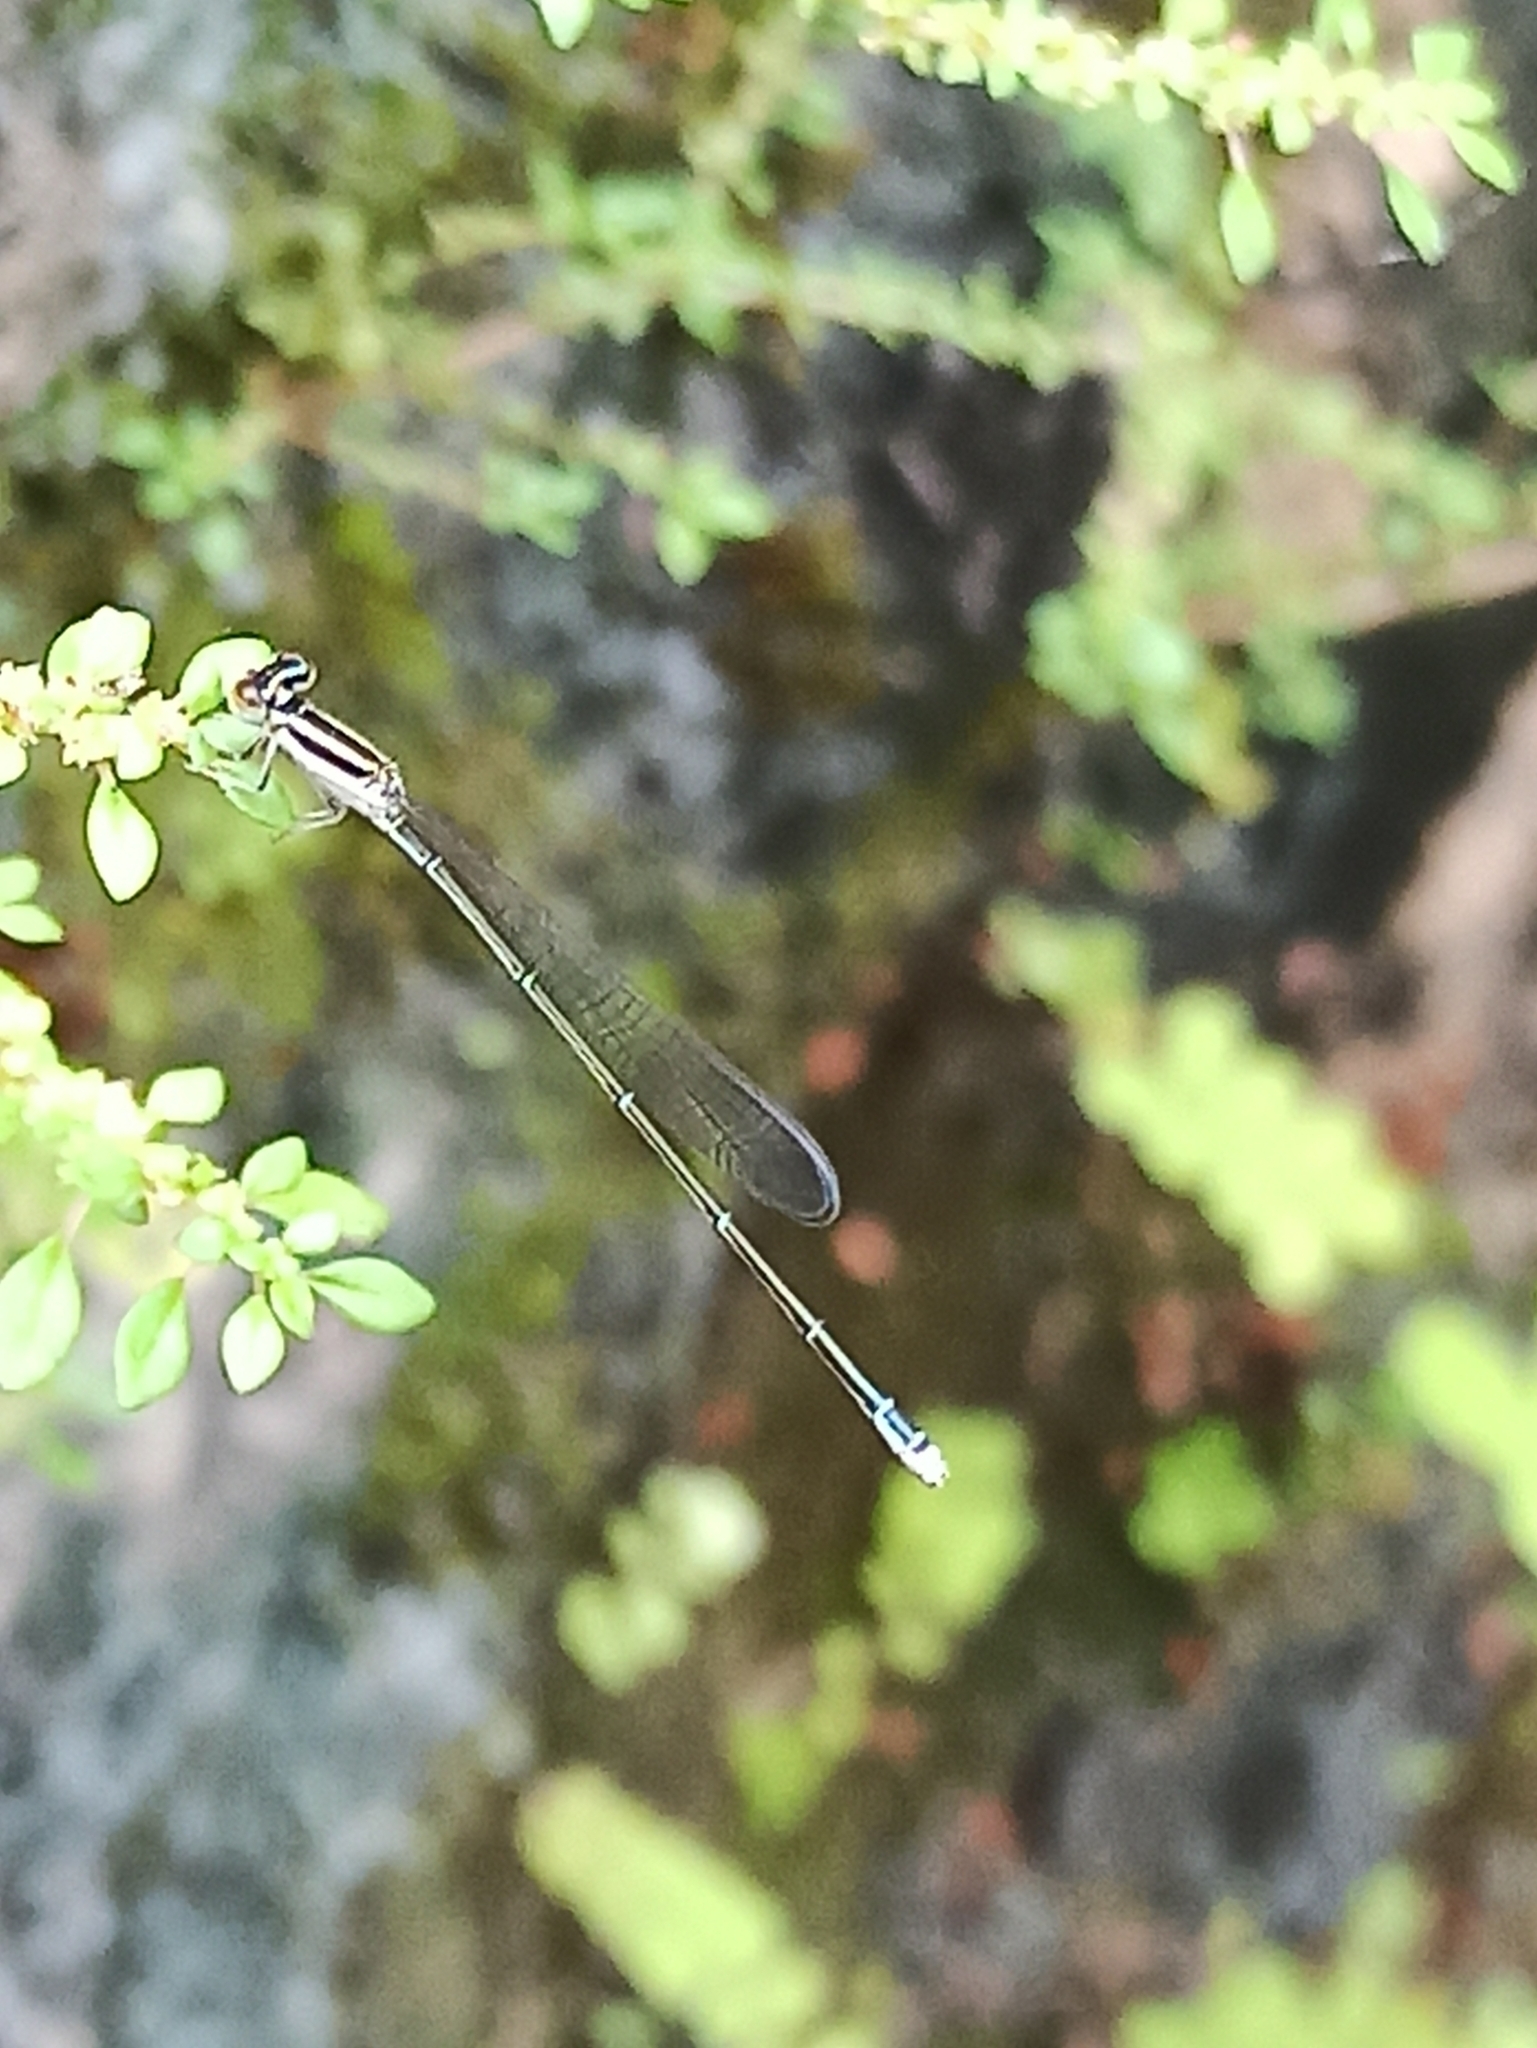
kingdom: Animalia
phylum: Arthropoda
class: Insecta
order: Odonata
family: Coenagrionidae
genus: Aciagrion
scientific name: Aciagrion occidentale
